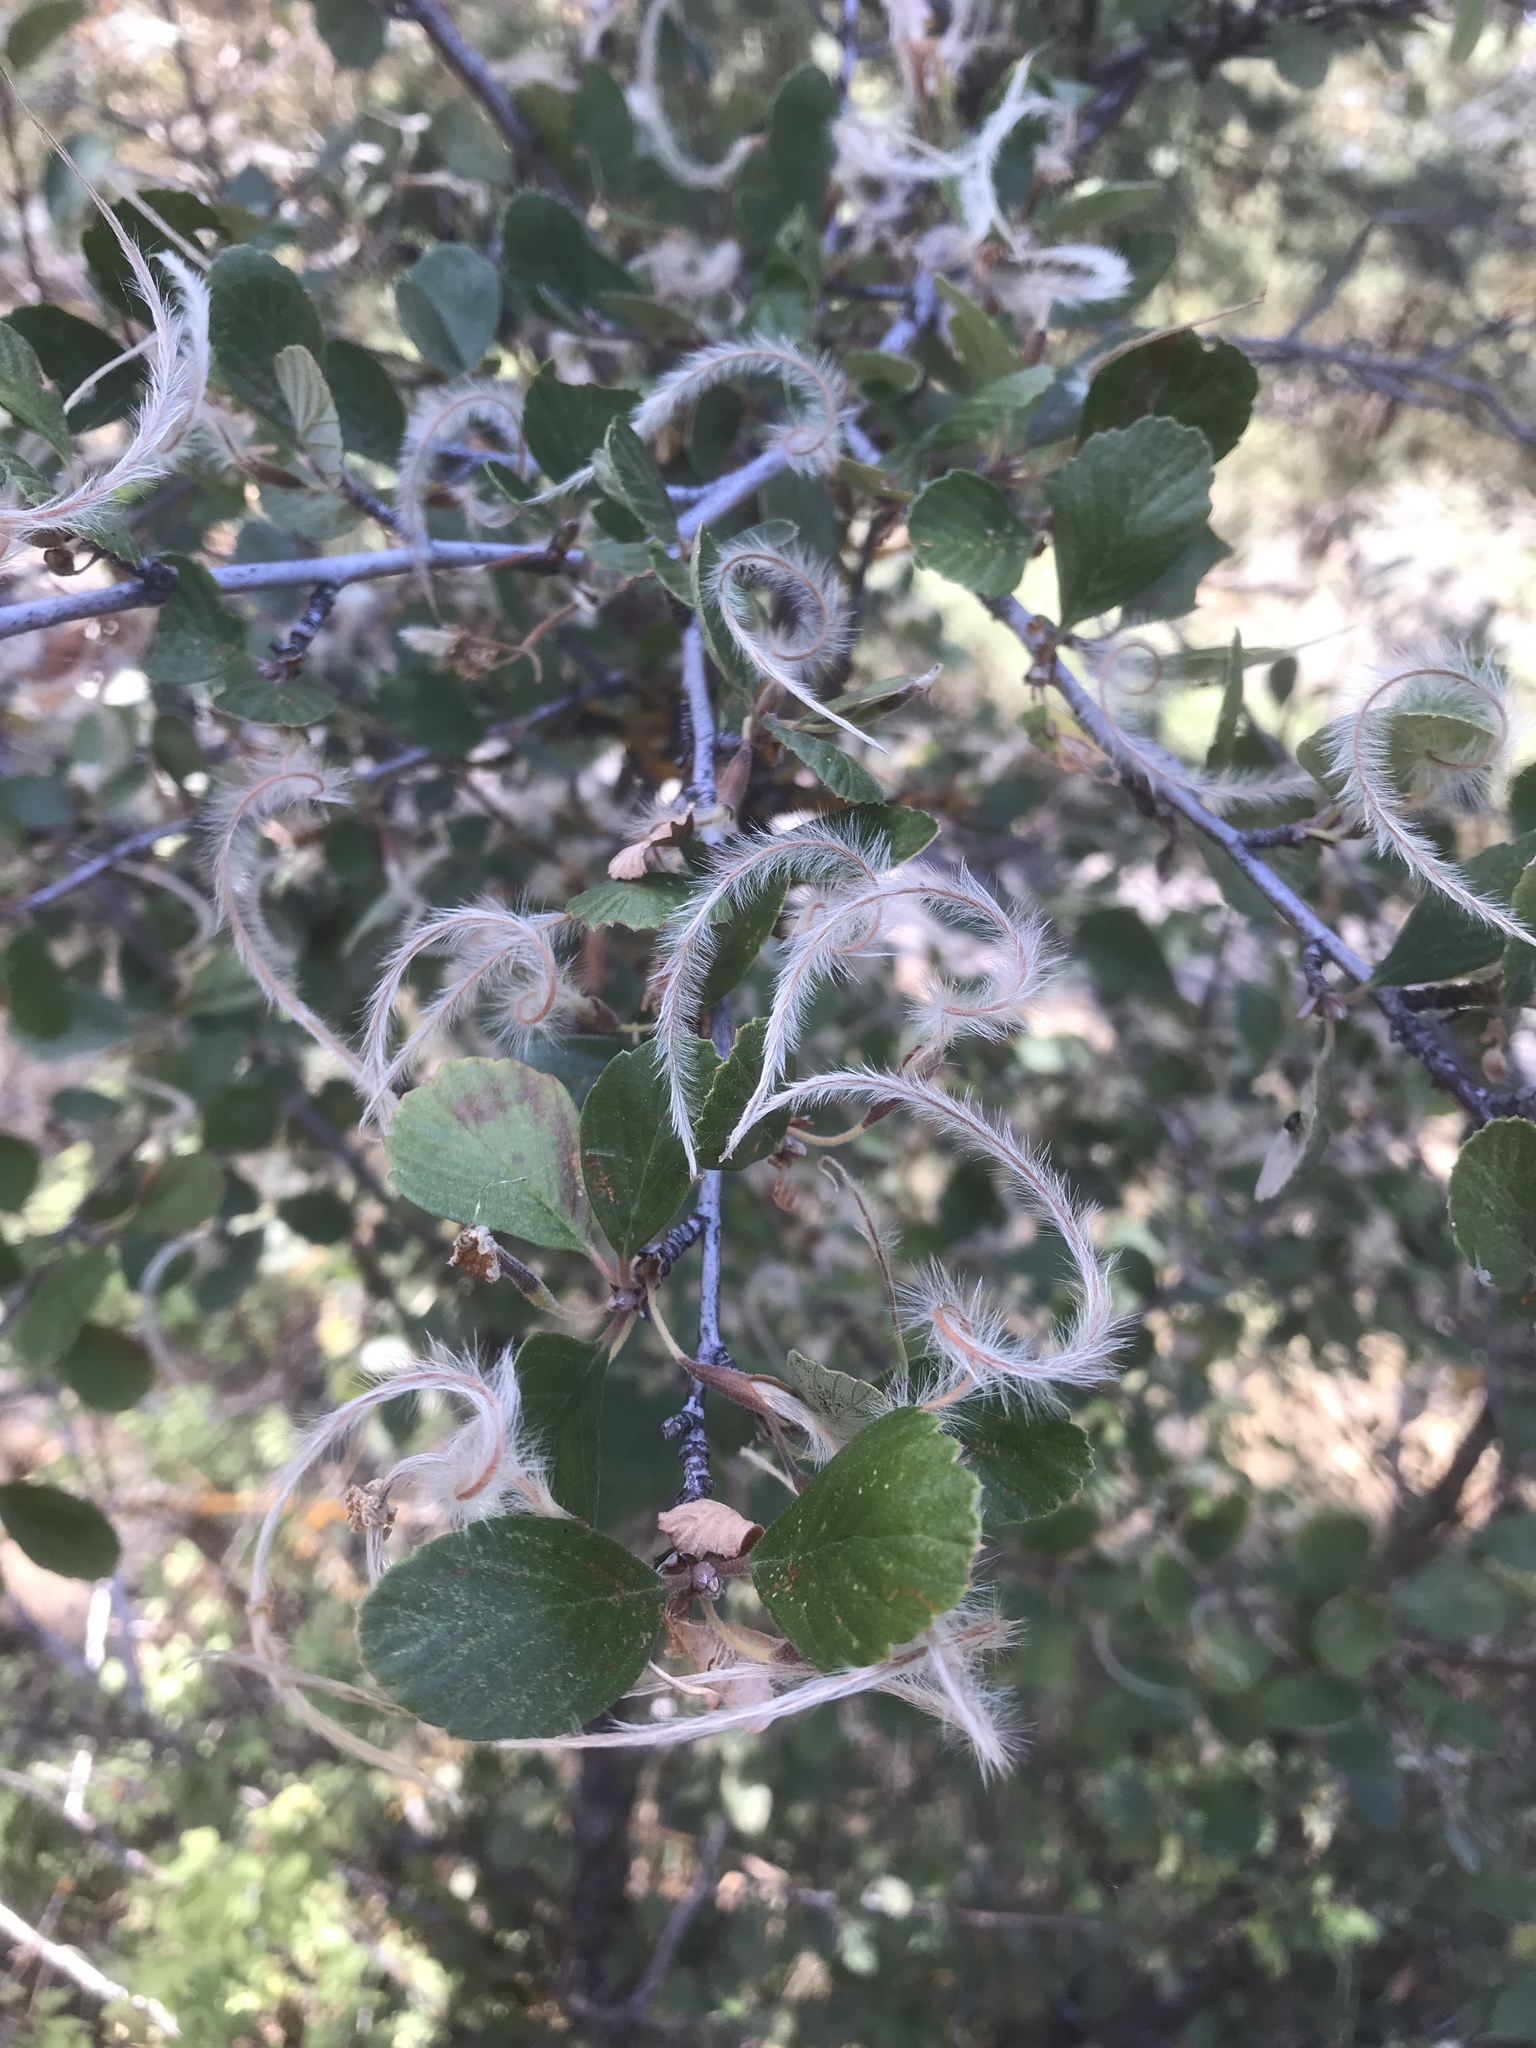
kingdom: Plantae
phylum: Tracheophyta
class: Magnoliopsida
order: Rosales
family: Rosaceae
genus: Cercocarpus
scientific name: Cercocarpus betuloides
